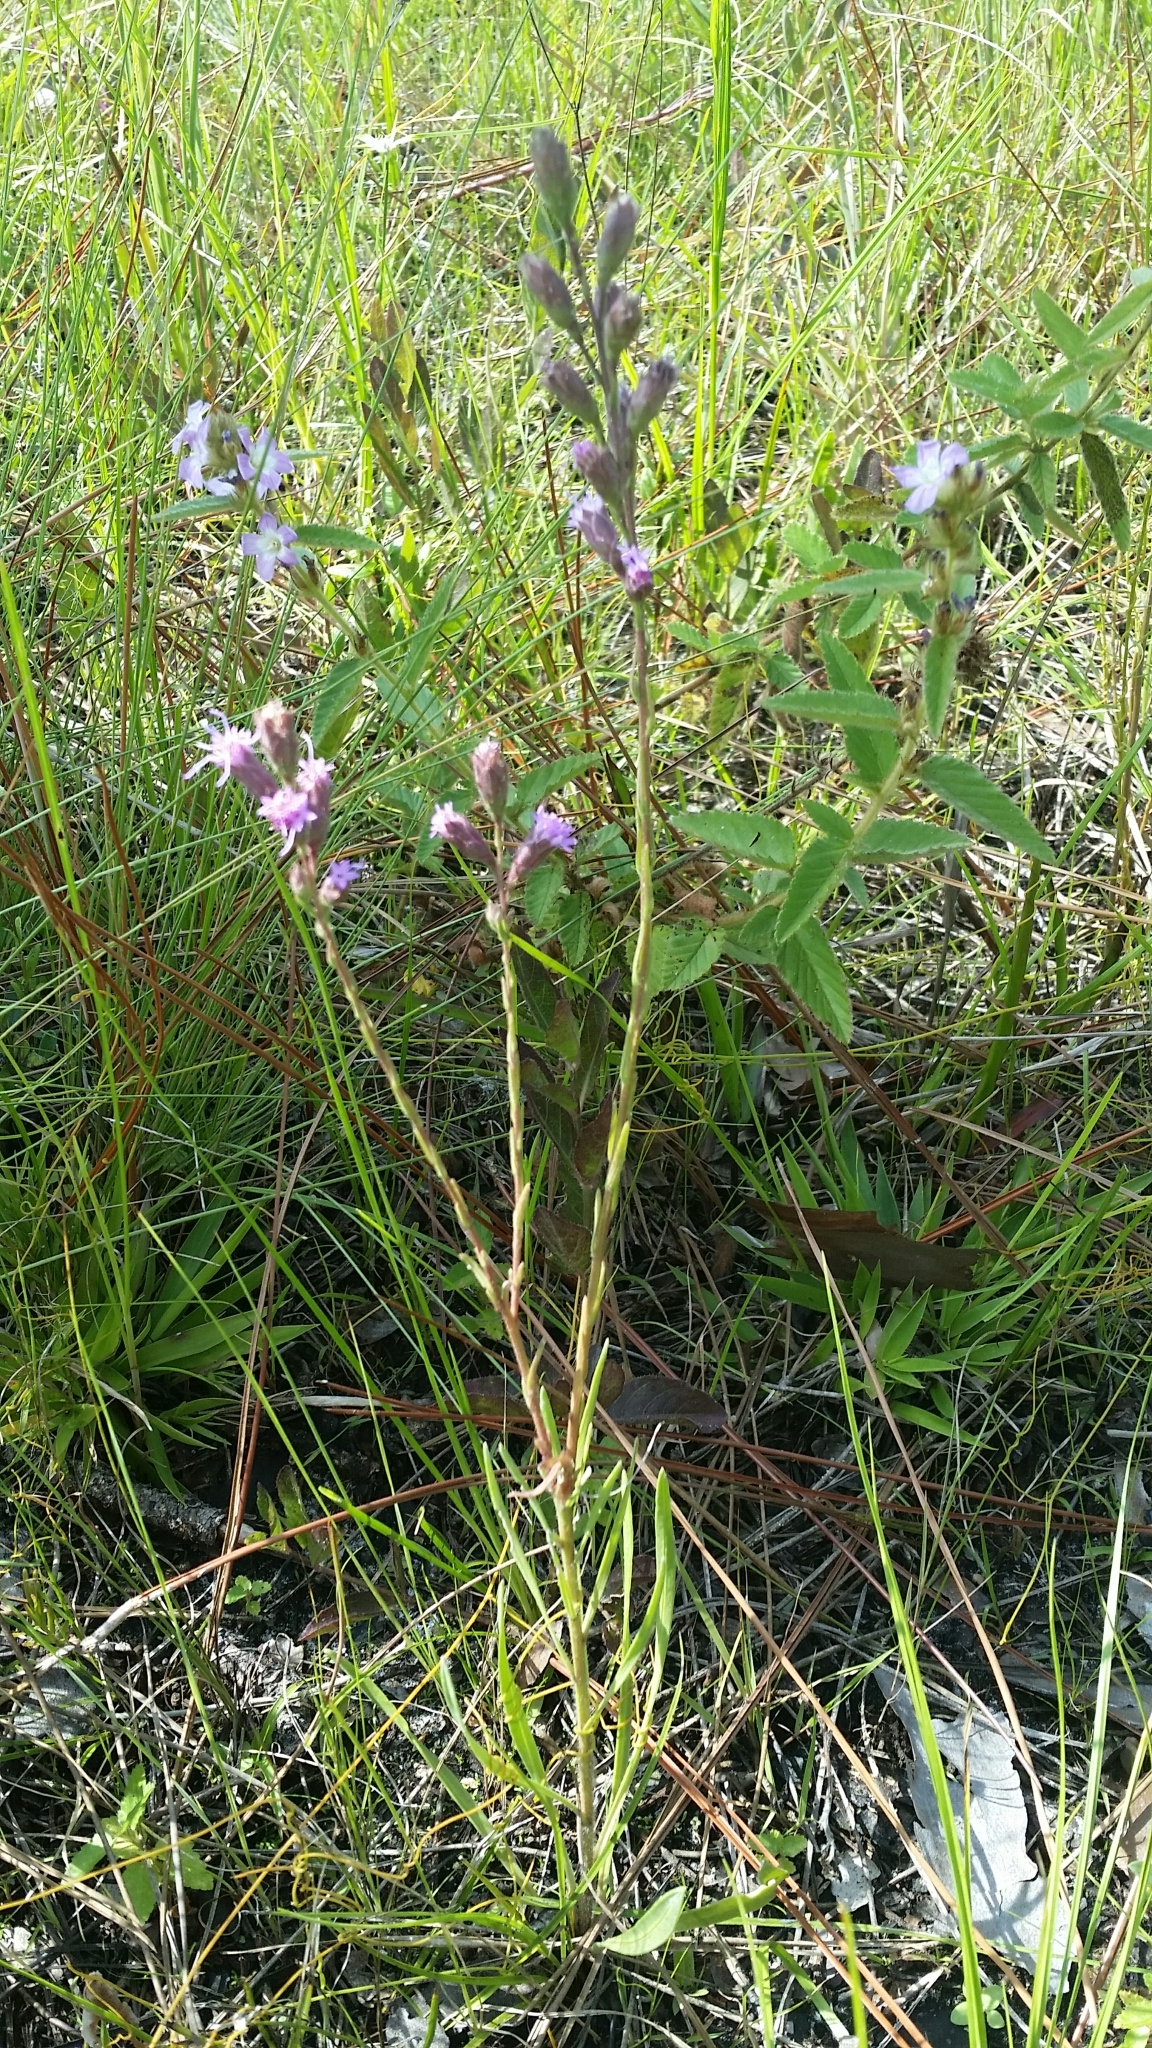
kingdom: Plantae
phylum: Tracheophyta
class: Magnoliopsida
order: Asterales
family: Asteraceae
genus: Liatris
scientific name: Liatris garberi
